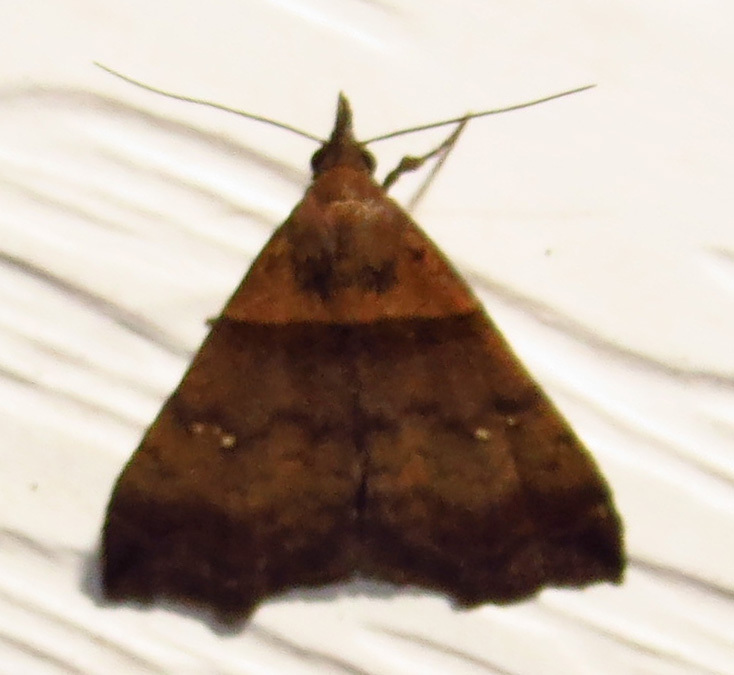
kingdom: Animalia
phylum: Arthropoda
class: Insecta
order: Lepidoptera
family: Erebidae
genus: Lascoria
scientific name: Lascoria ambigualis
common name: Ambiguous moth
